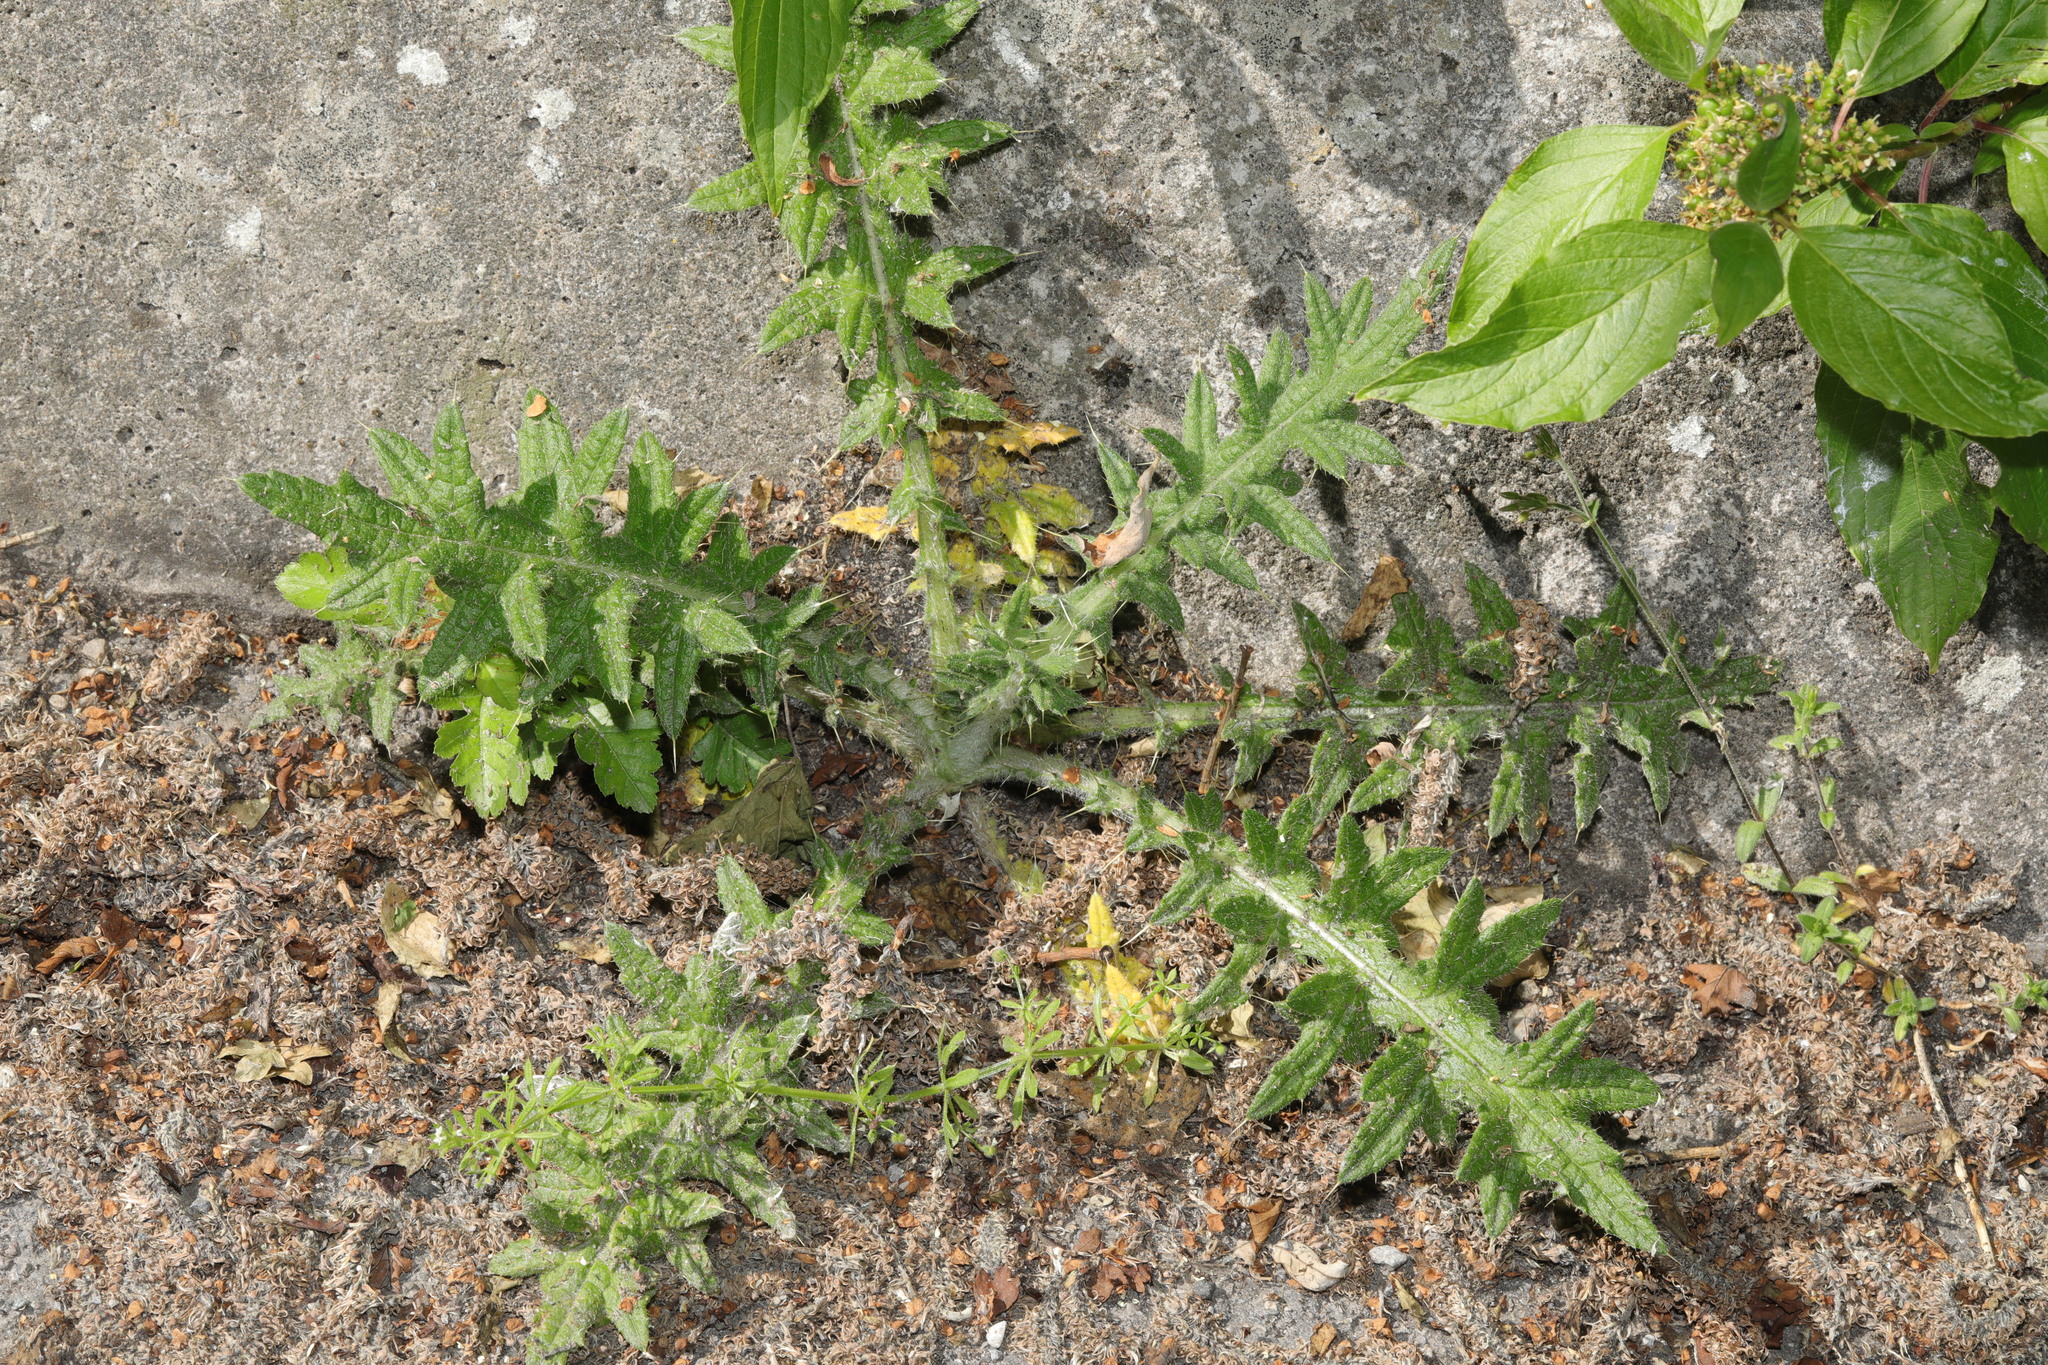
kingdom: Plantae
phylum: Tracheophyta
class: Magnoliopsida
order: Asterales
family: Asteraceae
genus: Cirsium
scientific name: Cirsium vulgare
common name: Bull thistle
